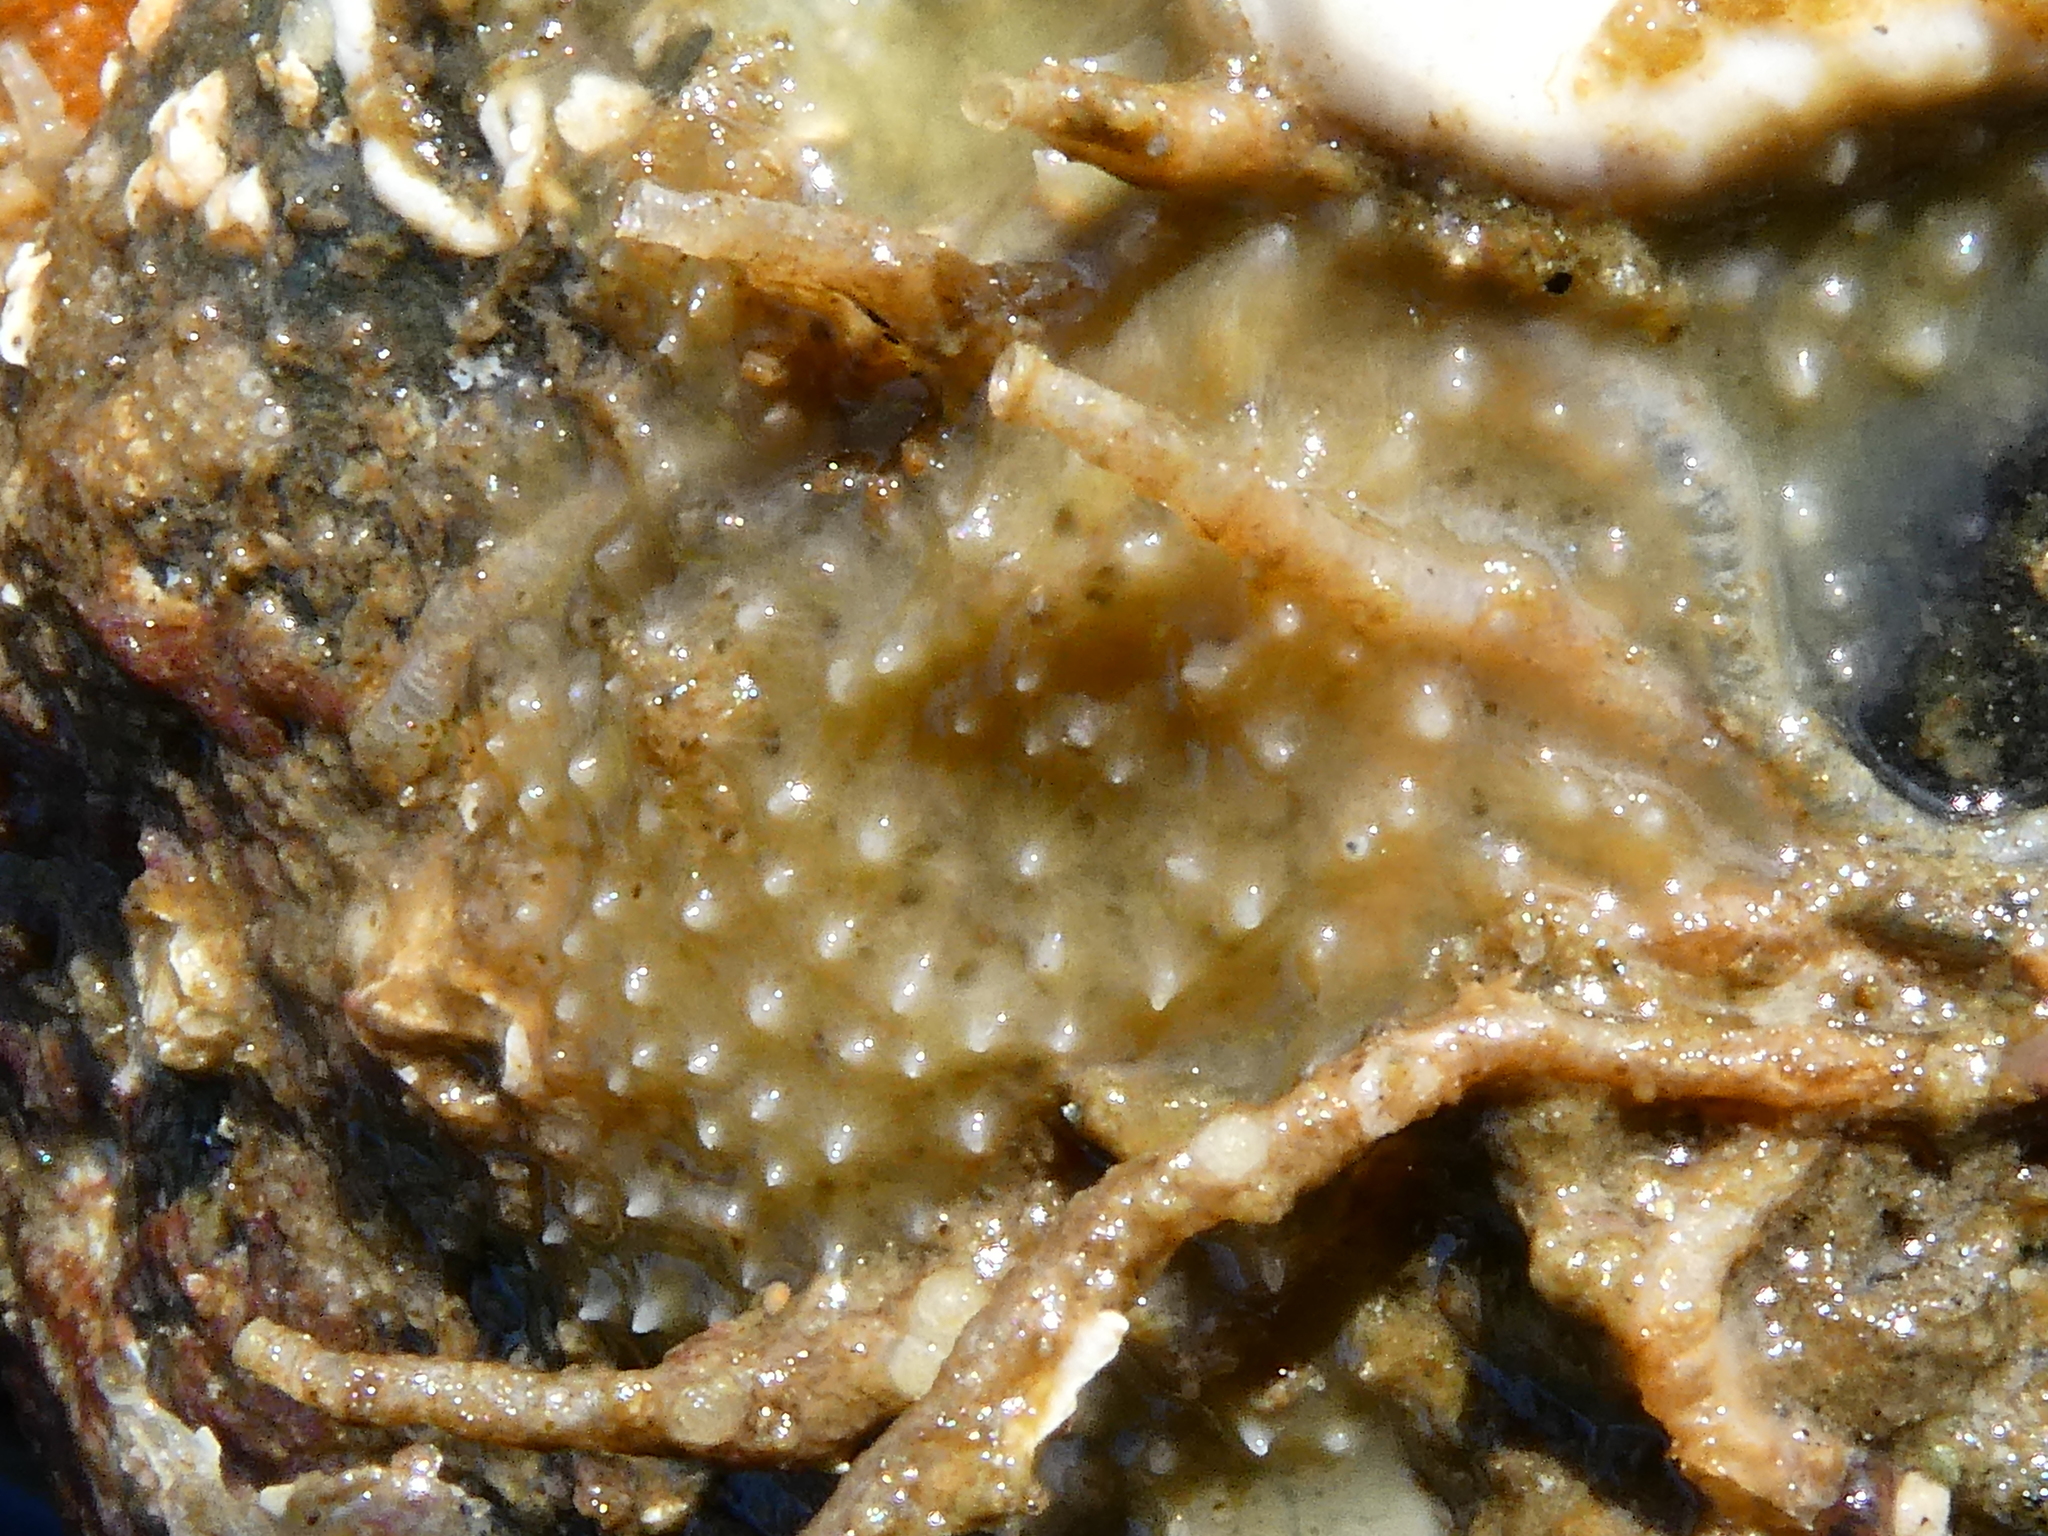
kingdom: Animalia
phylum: Porifera
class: Demospongiae
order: Dendroceratida
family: Darwinellidae
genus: Aplysilla
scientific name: Aplysilla glacialis
